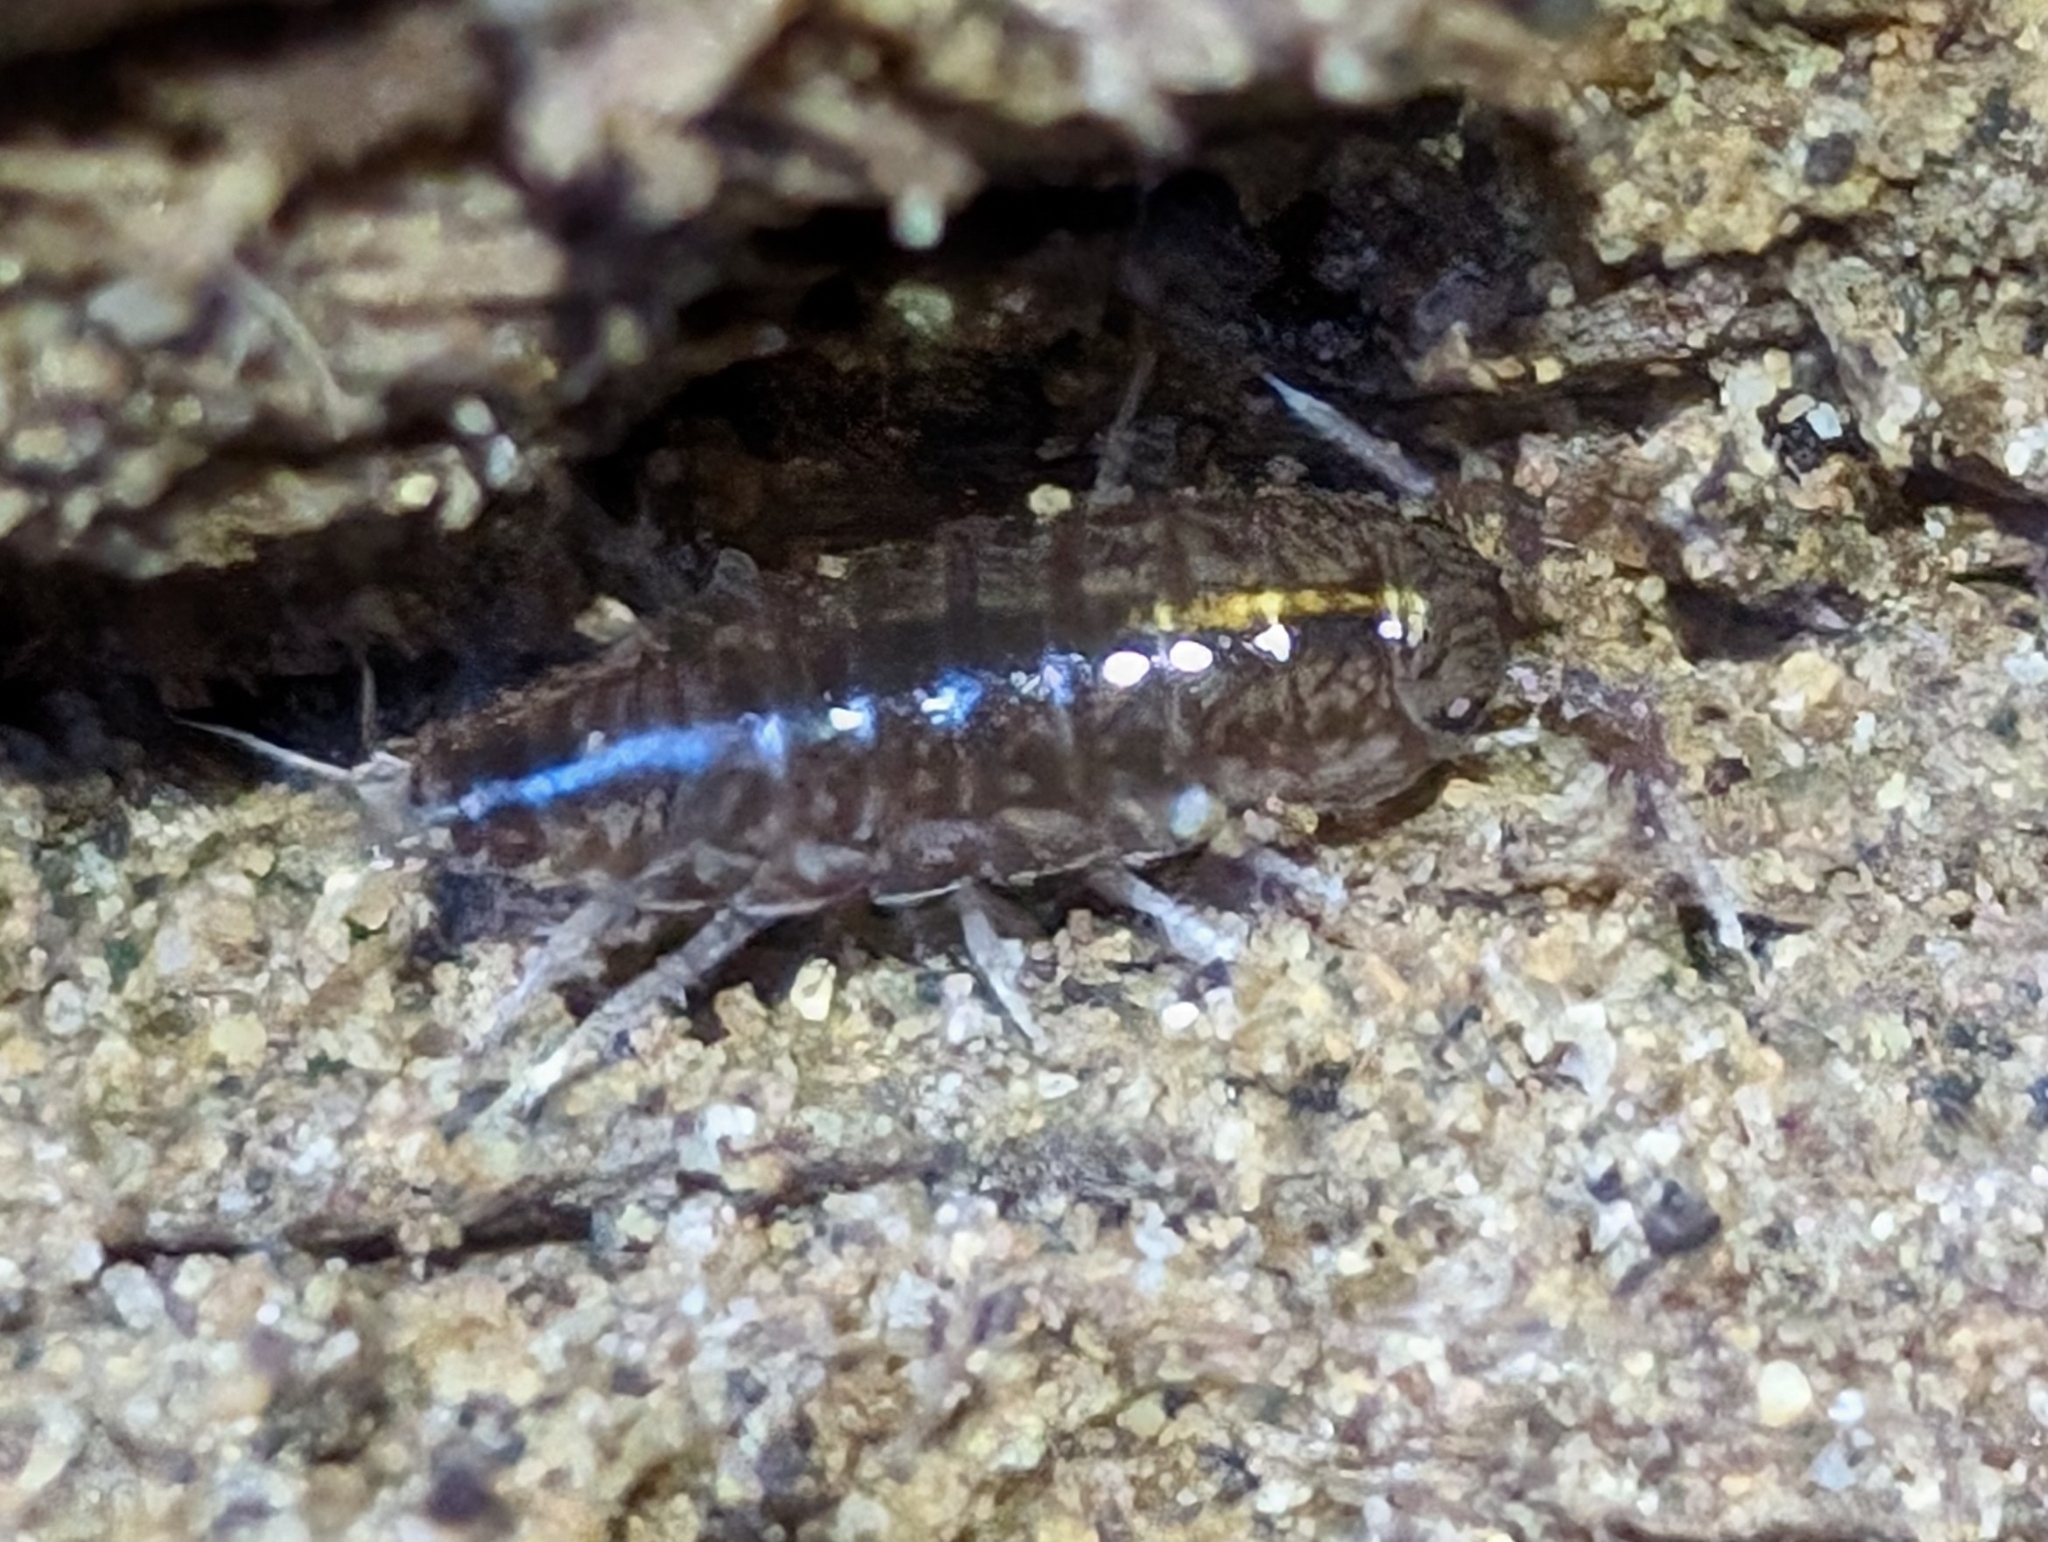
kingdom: Animalia
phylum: Arthropoda
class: Malacostraca
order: Isopoda
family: Ligiidae
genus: Ligidium
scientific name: Ligidium gracile
